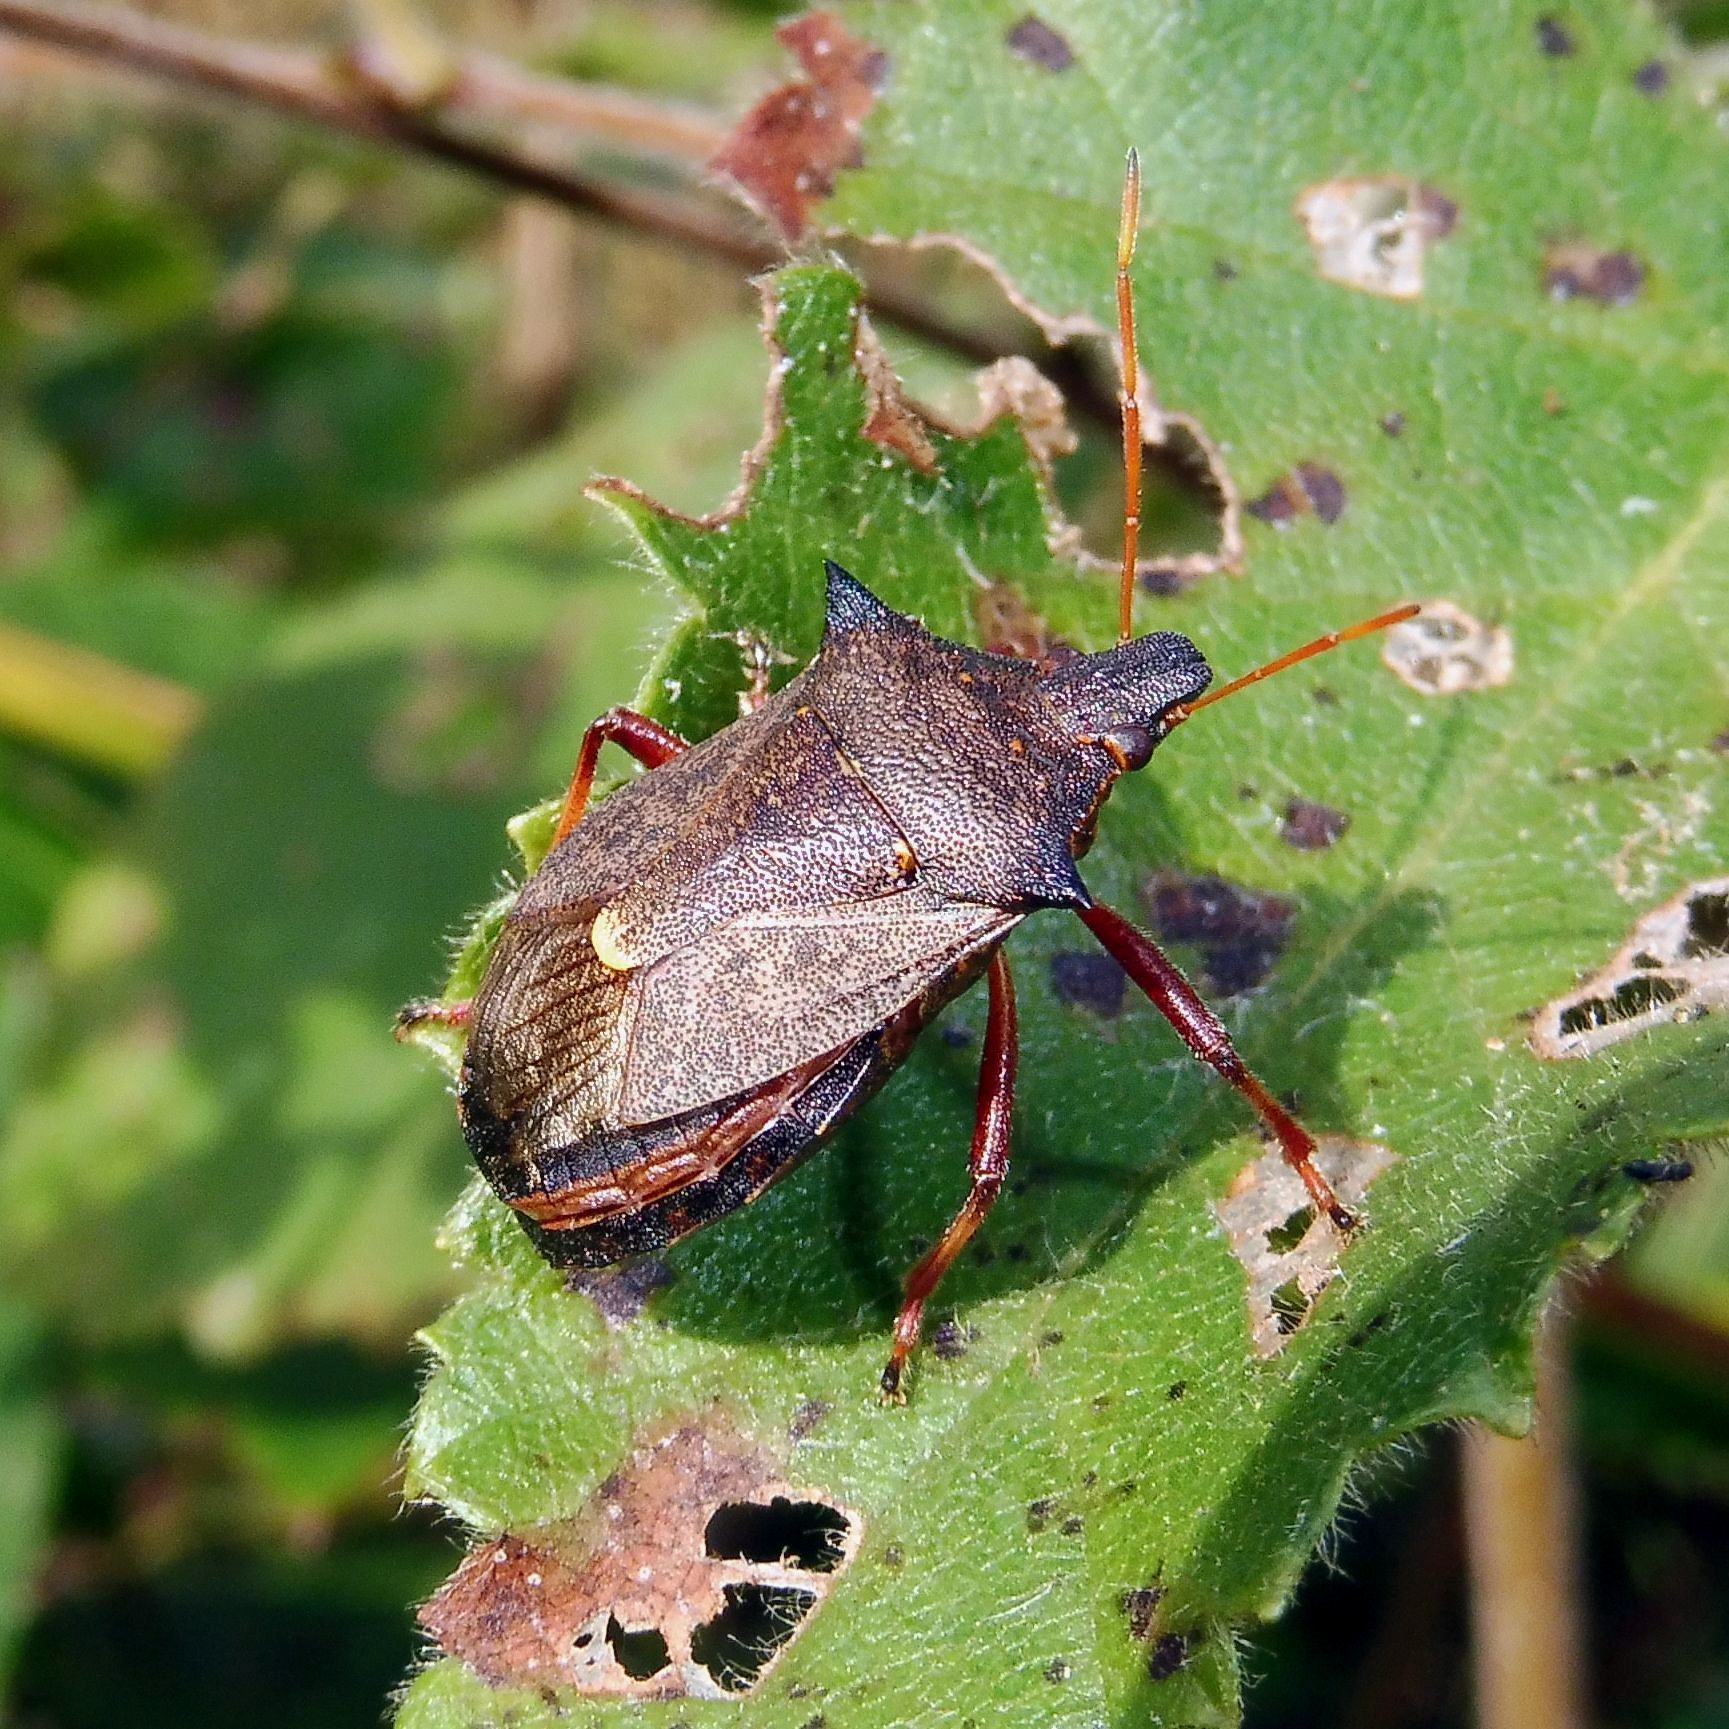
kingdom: Animalia
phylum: Arthropoda
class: Insecta
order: Hemiptera
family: Pentatomidae
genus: Picromerus
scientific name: Picromerus bidens
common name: Spiked shieldbug
